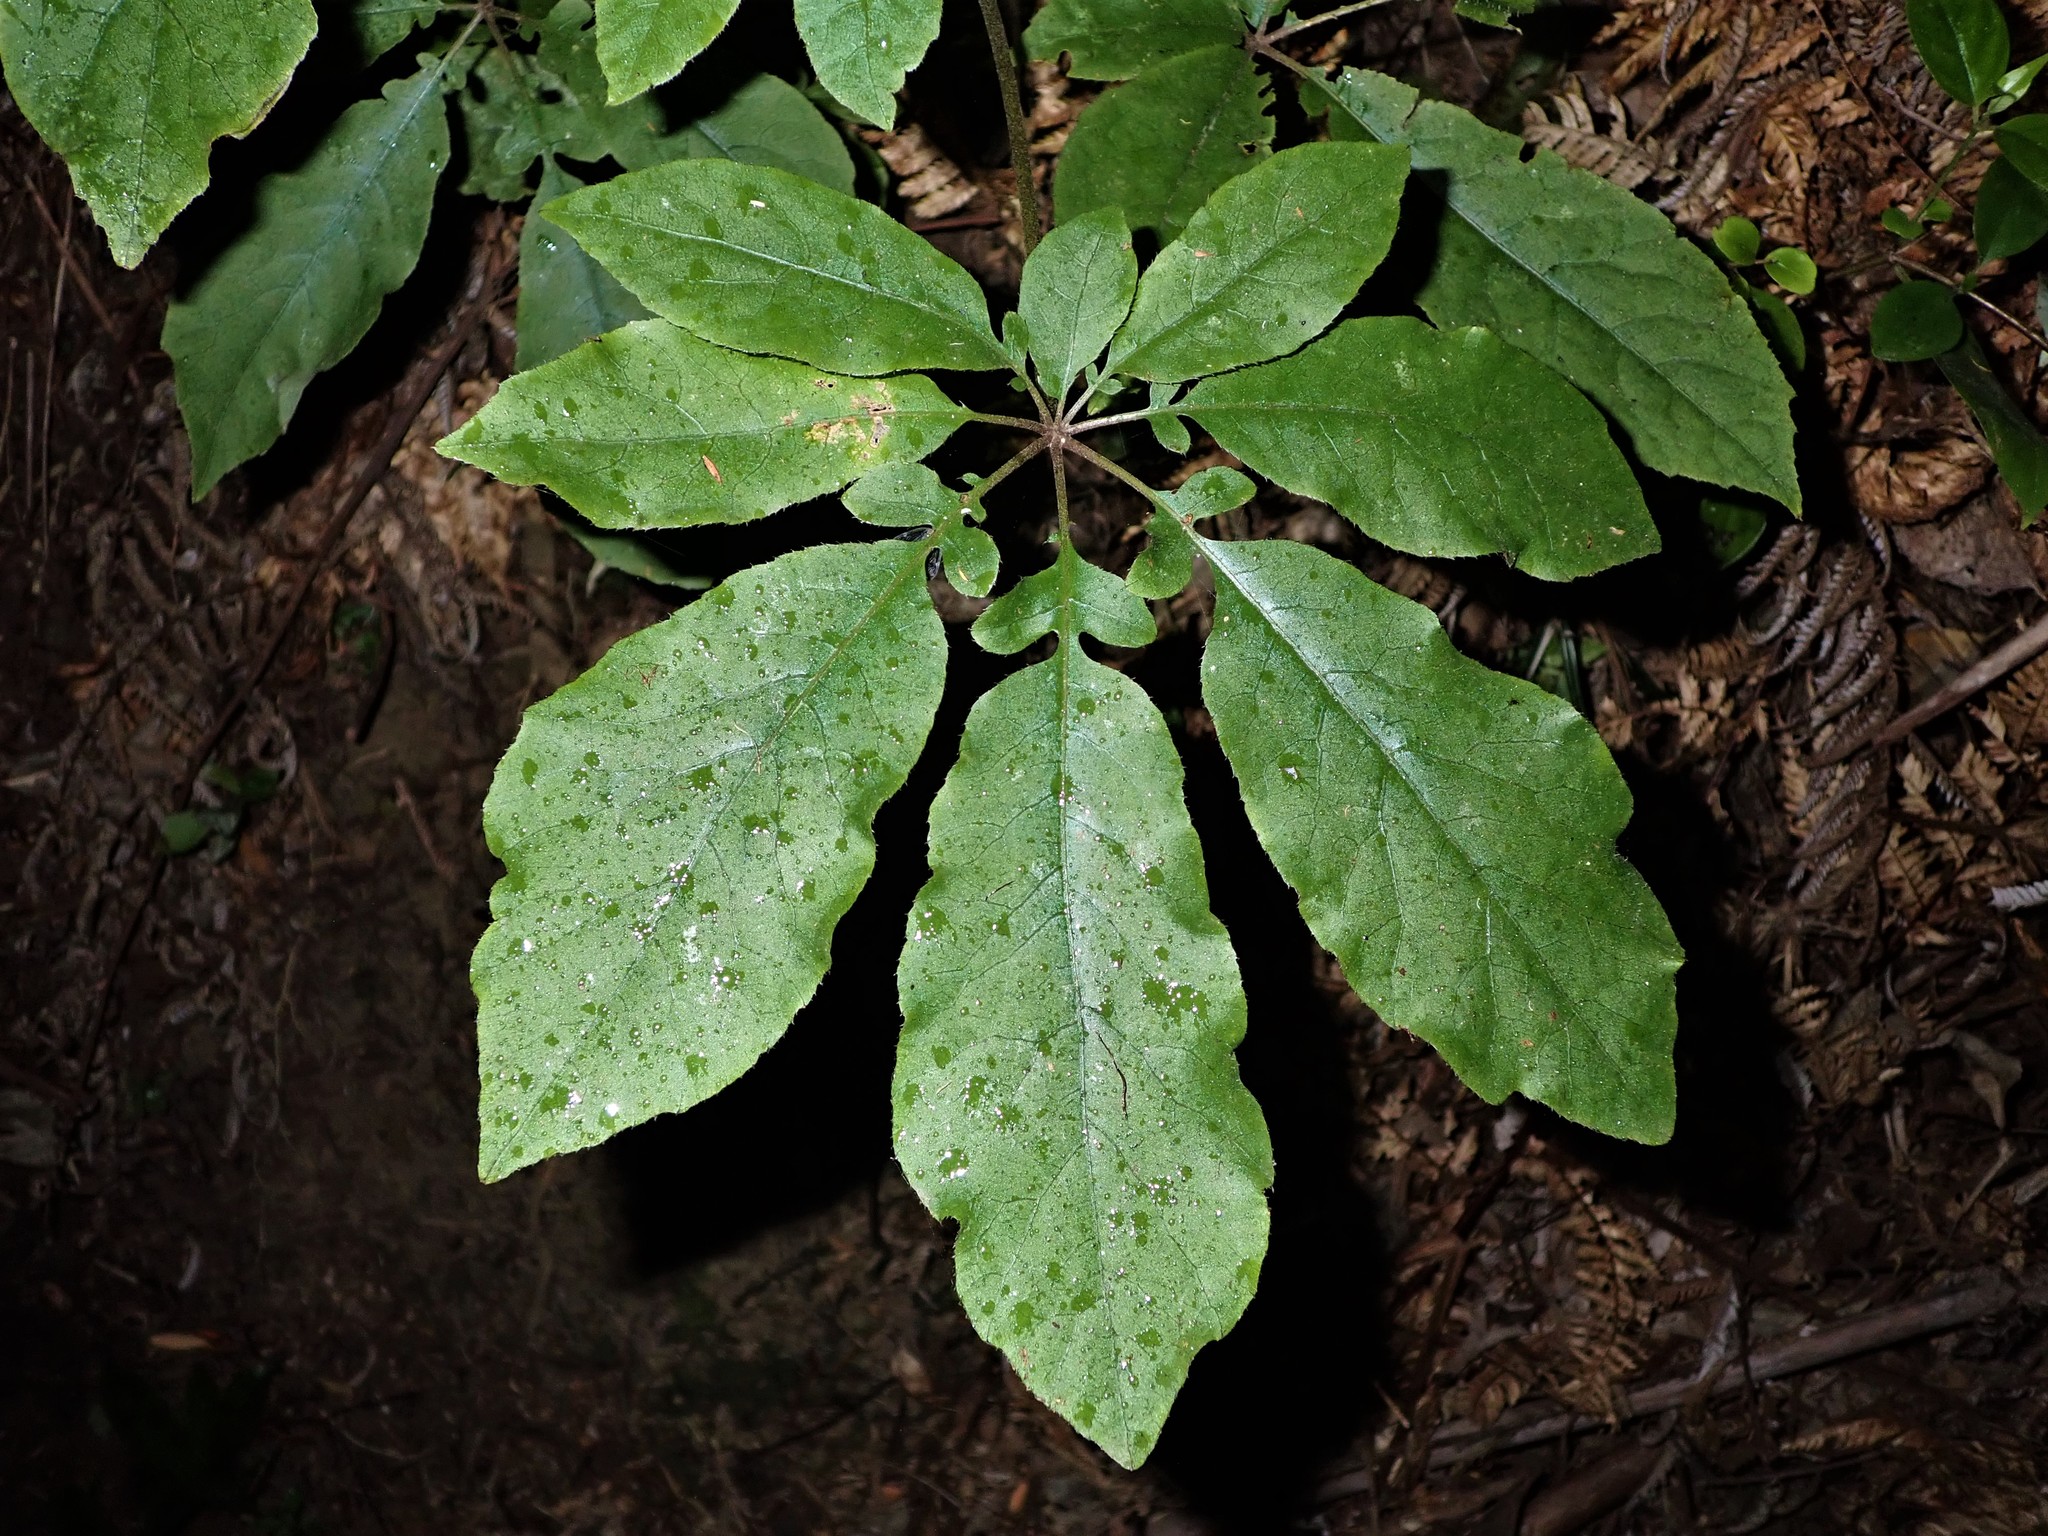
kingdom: Plantae
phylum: Tracheophyta
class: Magnoliopsida
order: Apiales
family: Araliaceae
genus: Schefflera
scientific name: Schefflera digitata
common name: Pate
